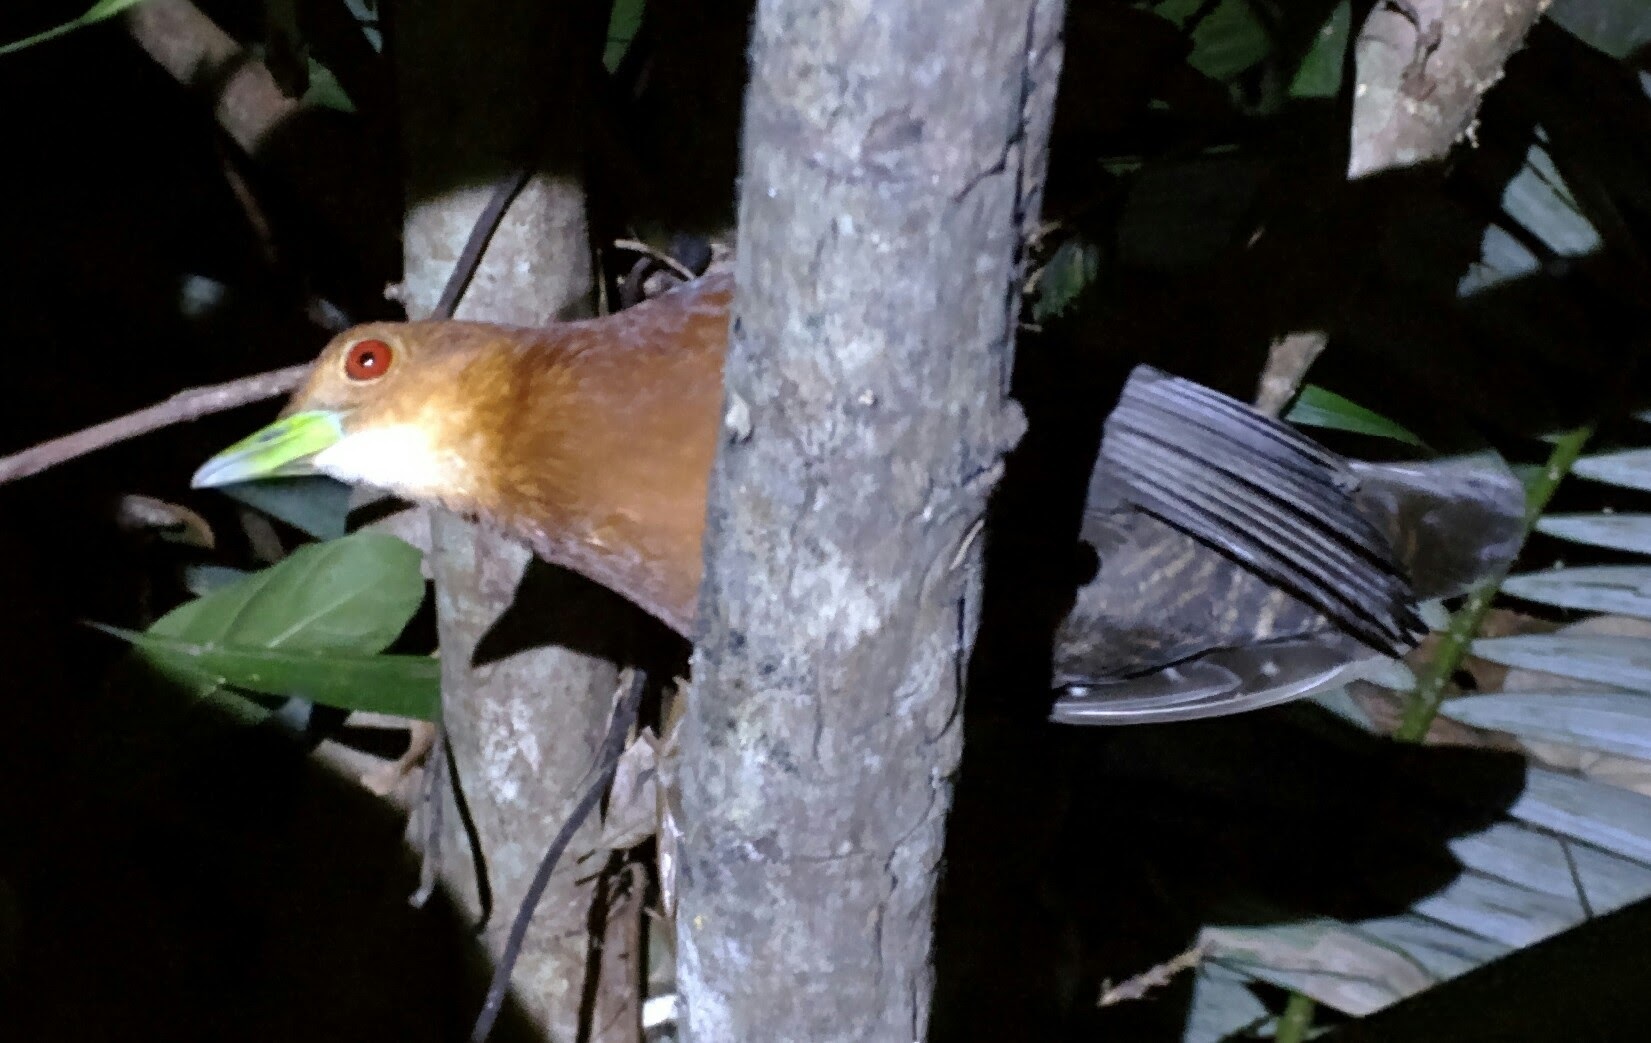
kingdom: Animalia
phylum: Chordata
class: Aves
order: Gruiformes
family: Rallidae
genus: Rallina
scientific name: Rallina tricolor
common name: Red-necked crake
